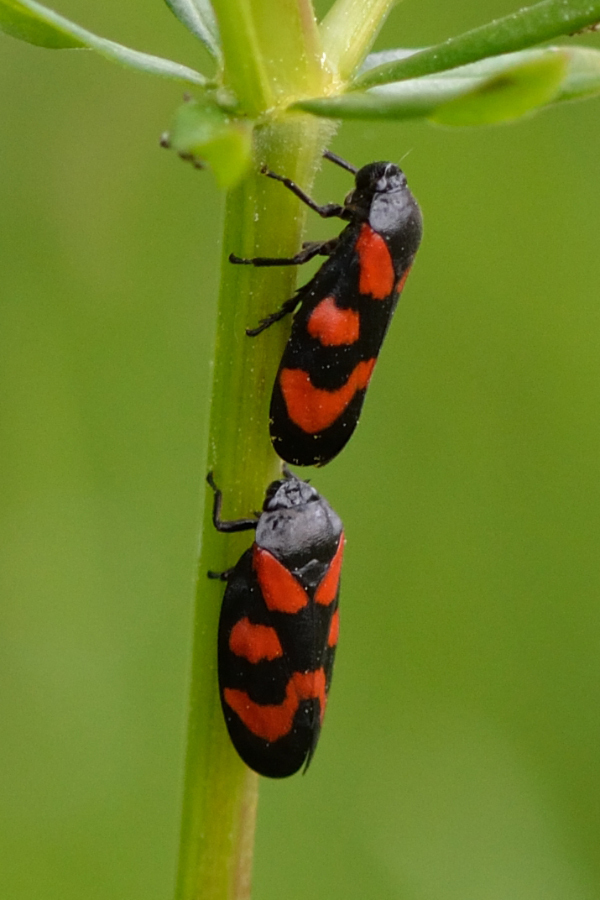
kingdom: Animalia
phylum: Arthropoda
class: Insecta
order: Hemiptera
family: Cercopidae
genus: Cercopis
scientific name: Cercopis vulnerata
